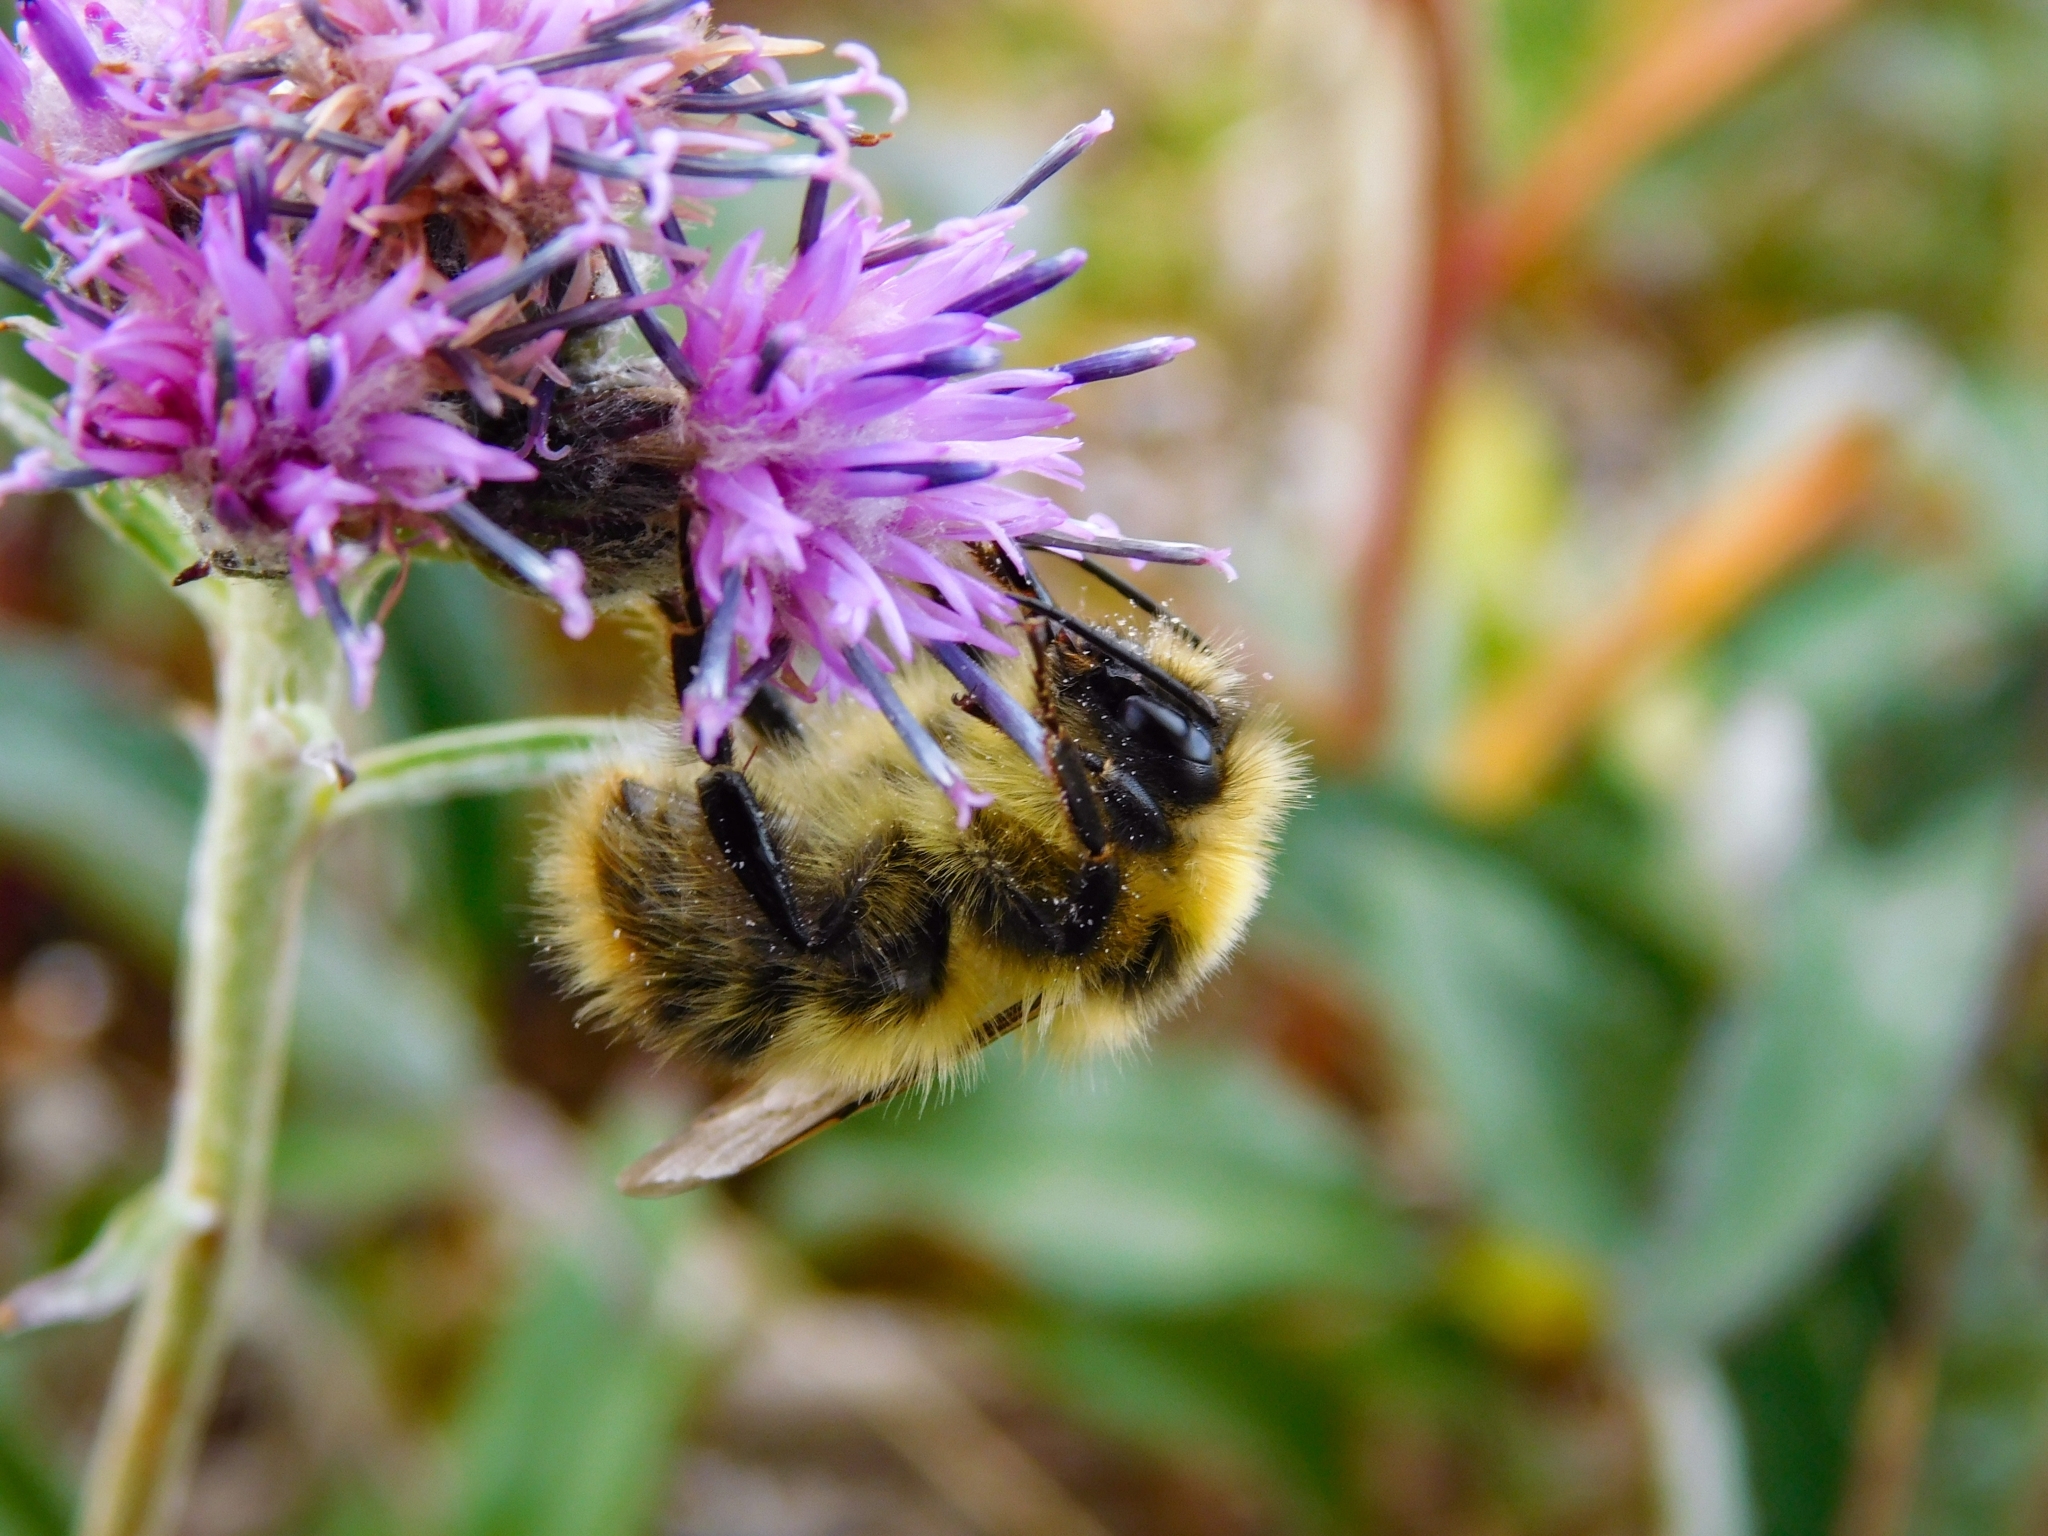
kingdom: Animalia
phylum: Arthropoda
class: Insecta
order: Hymenoptera
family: Apidae
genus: Bombus
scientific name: Bombus balteatus
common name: High country bumble bee
